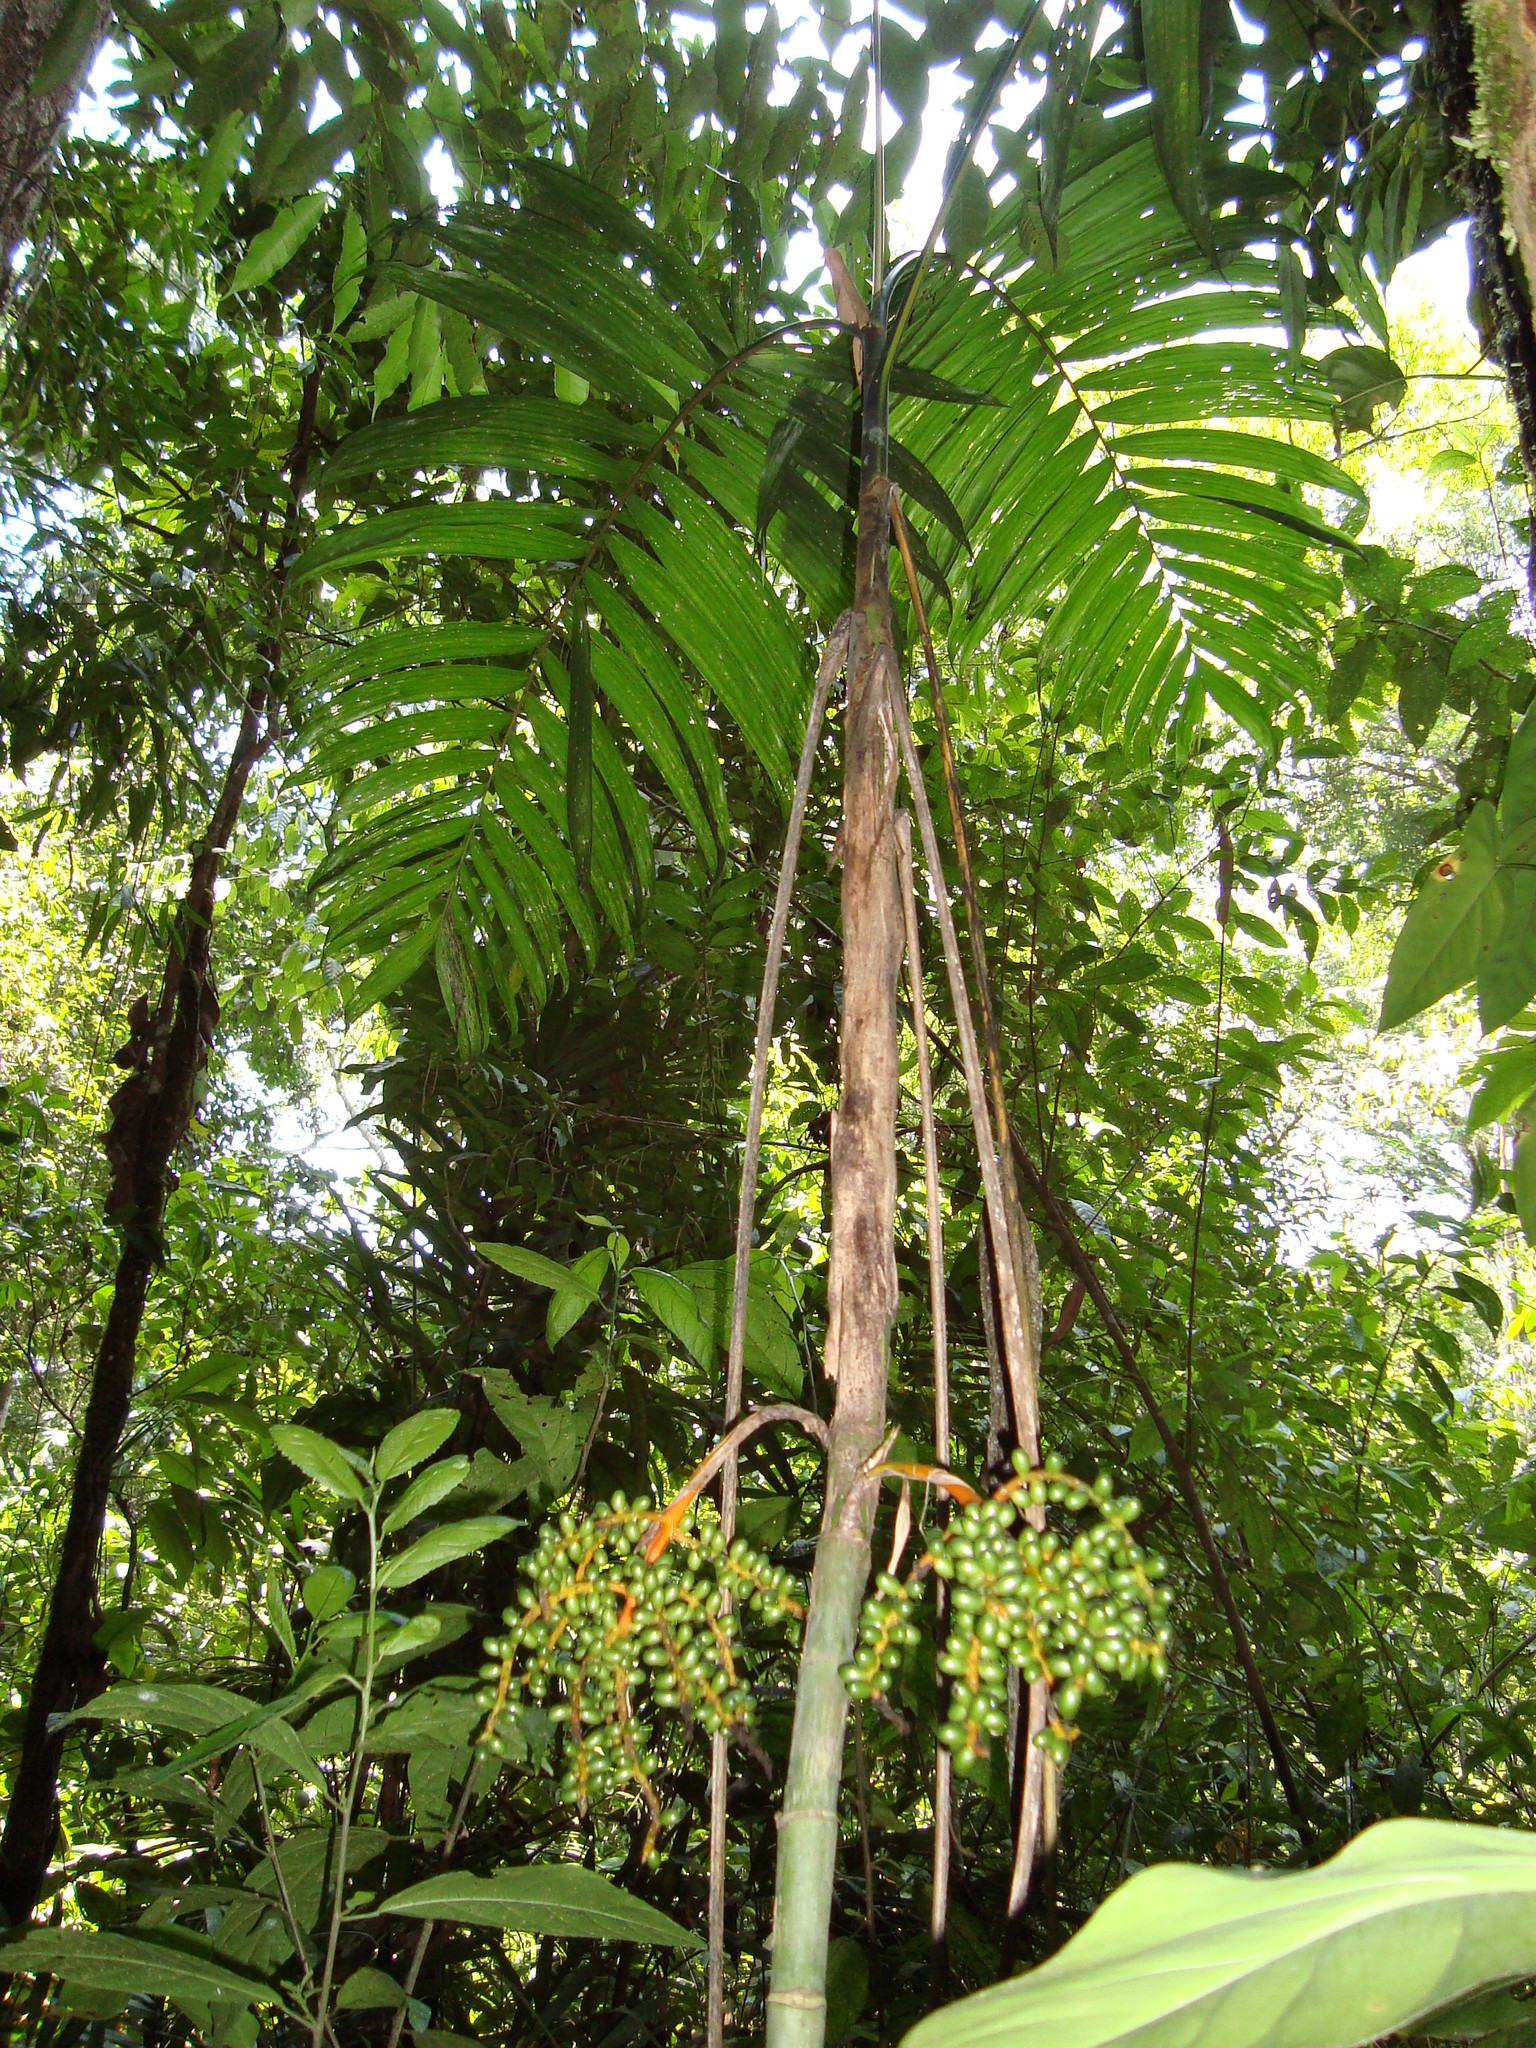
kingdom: Plantae
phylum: Tracheophyta
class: Liliopsida
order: Arecales
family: Arecaceae
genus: Chamaedorea
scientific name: Chamaedorea tepejilote
